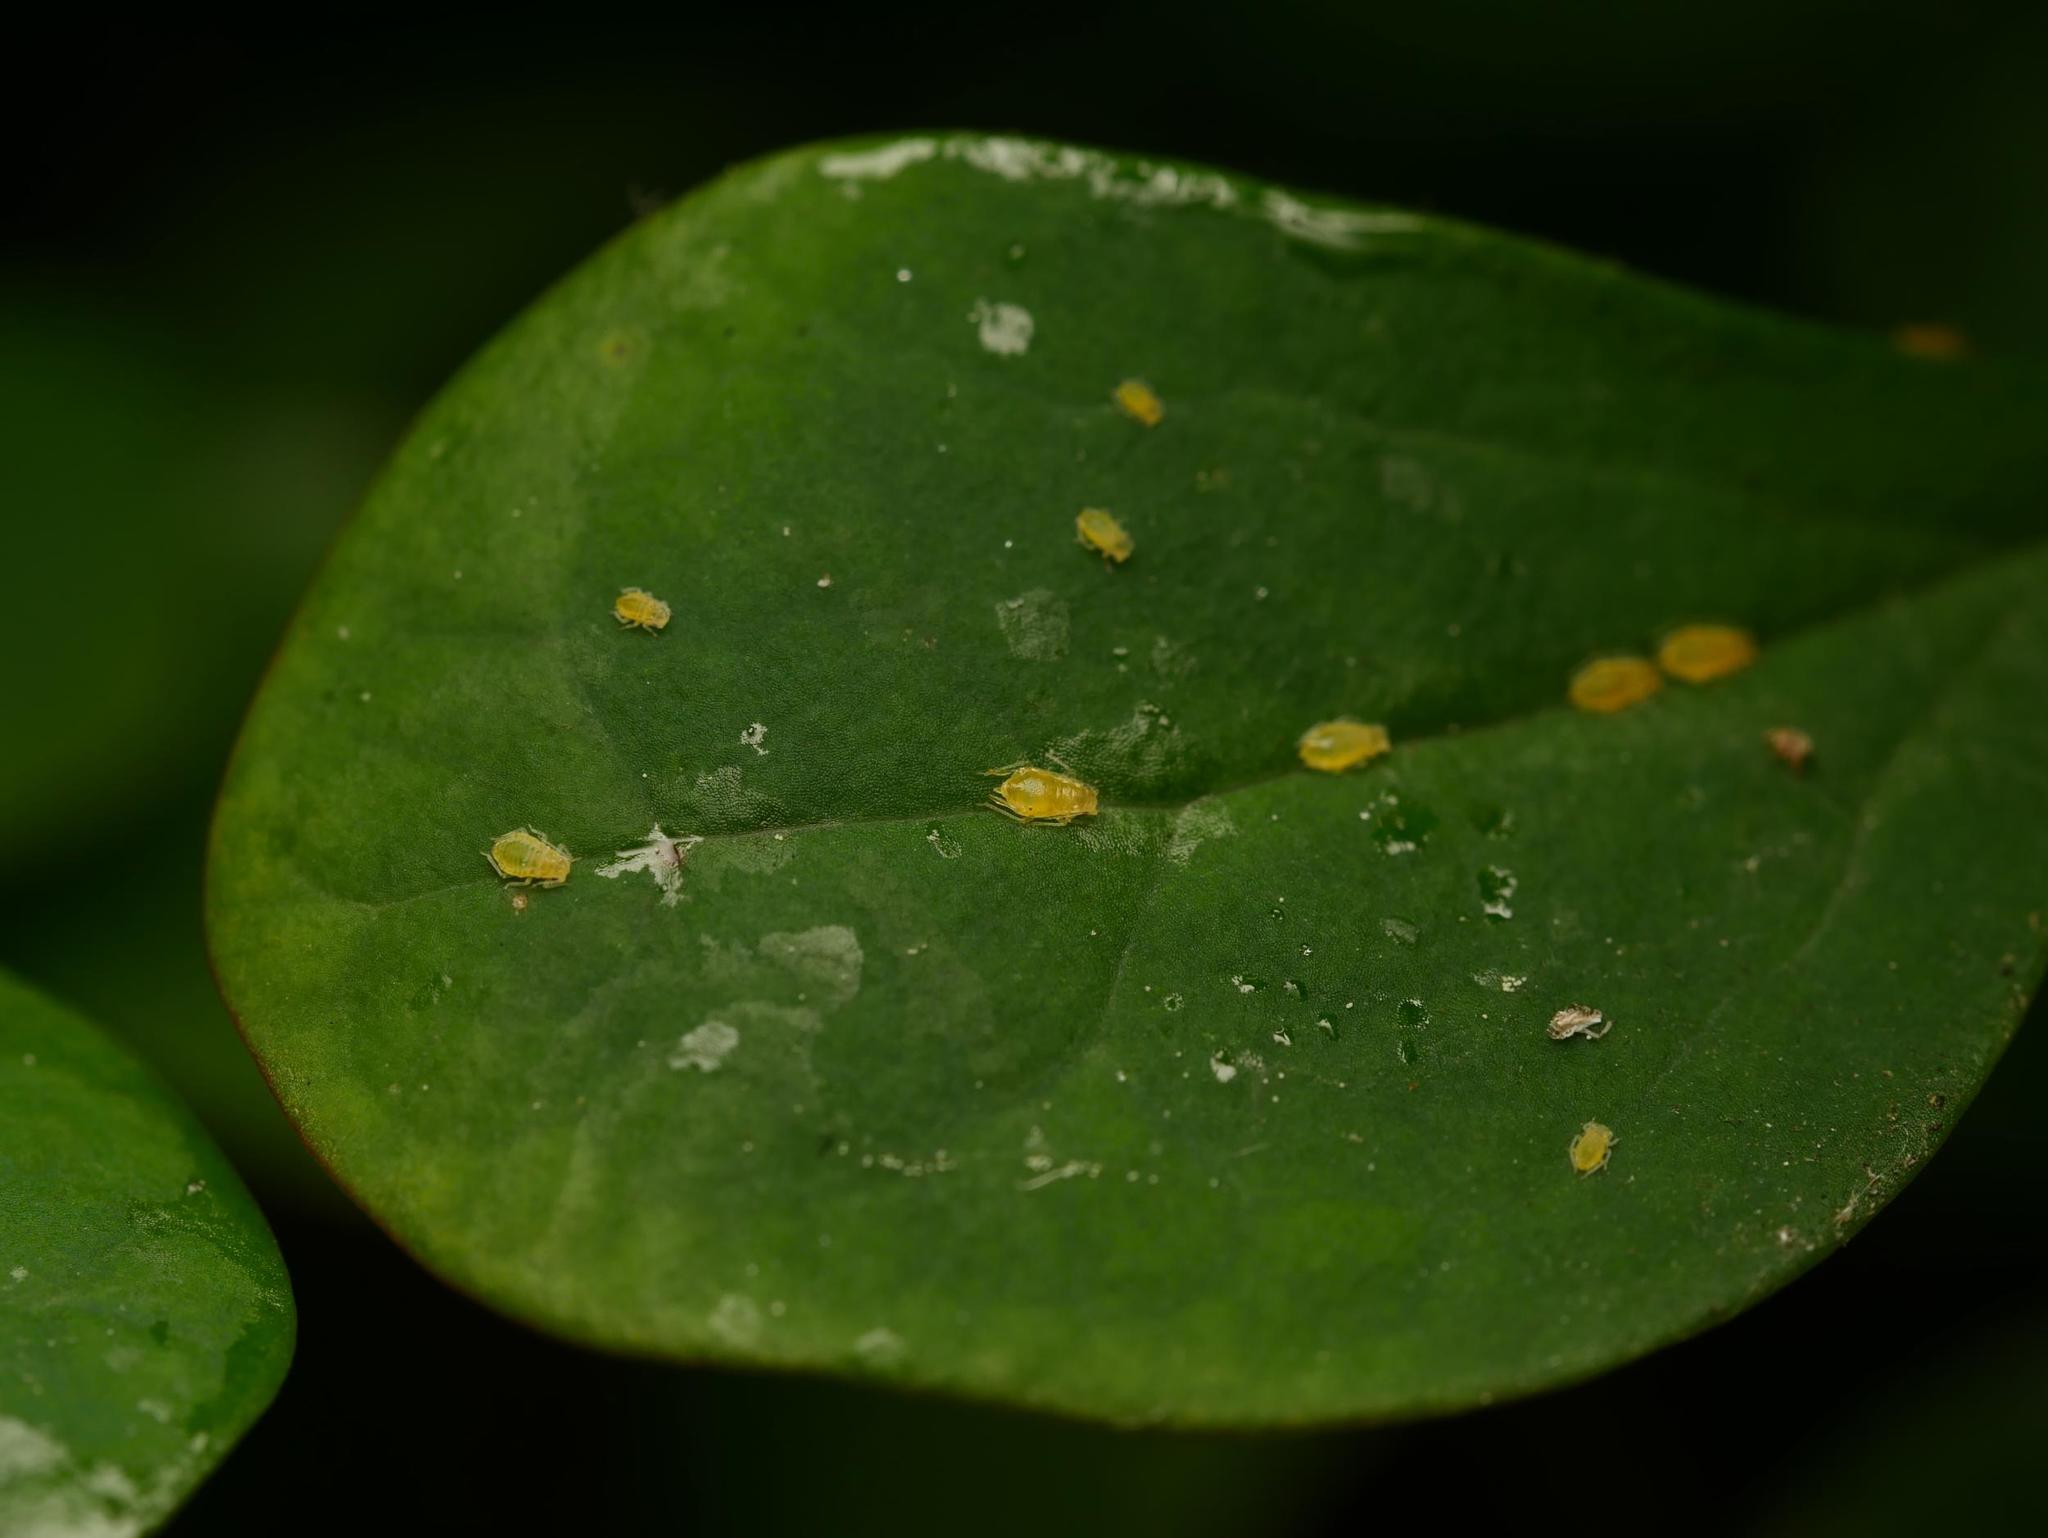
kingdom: Animalia
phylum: Arthropoda
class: Insecta
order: Hemiptera
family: Aphididae
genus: Liosomaphis
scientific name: Liosomaphis berberidis
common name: Barberry aphid
